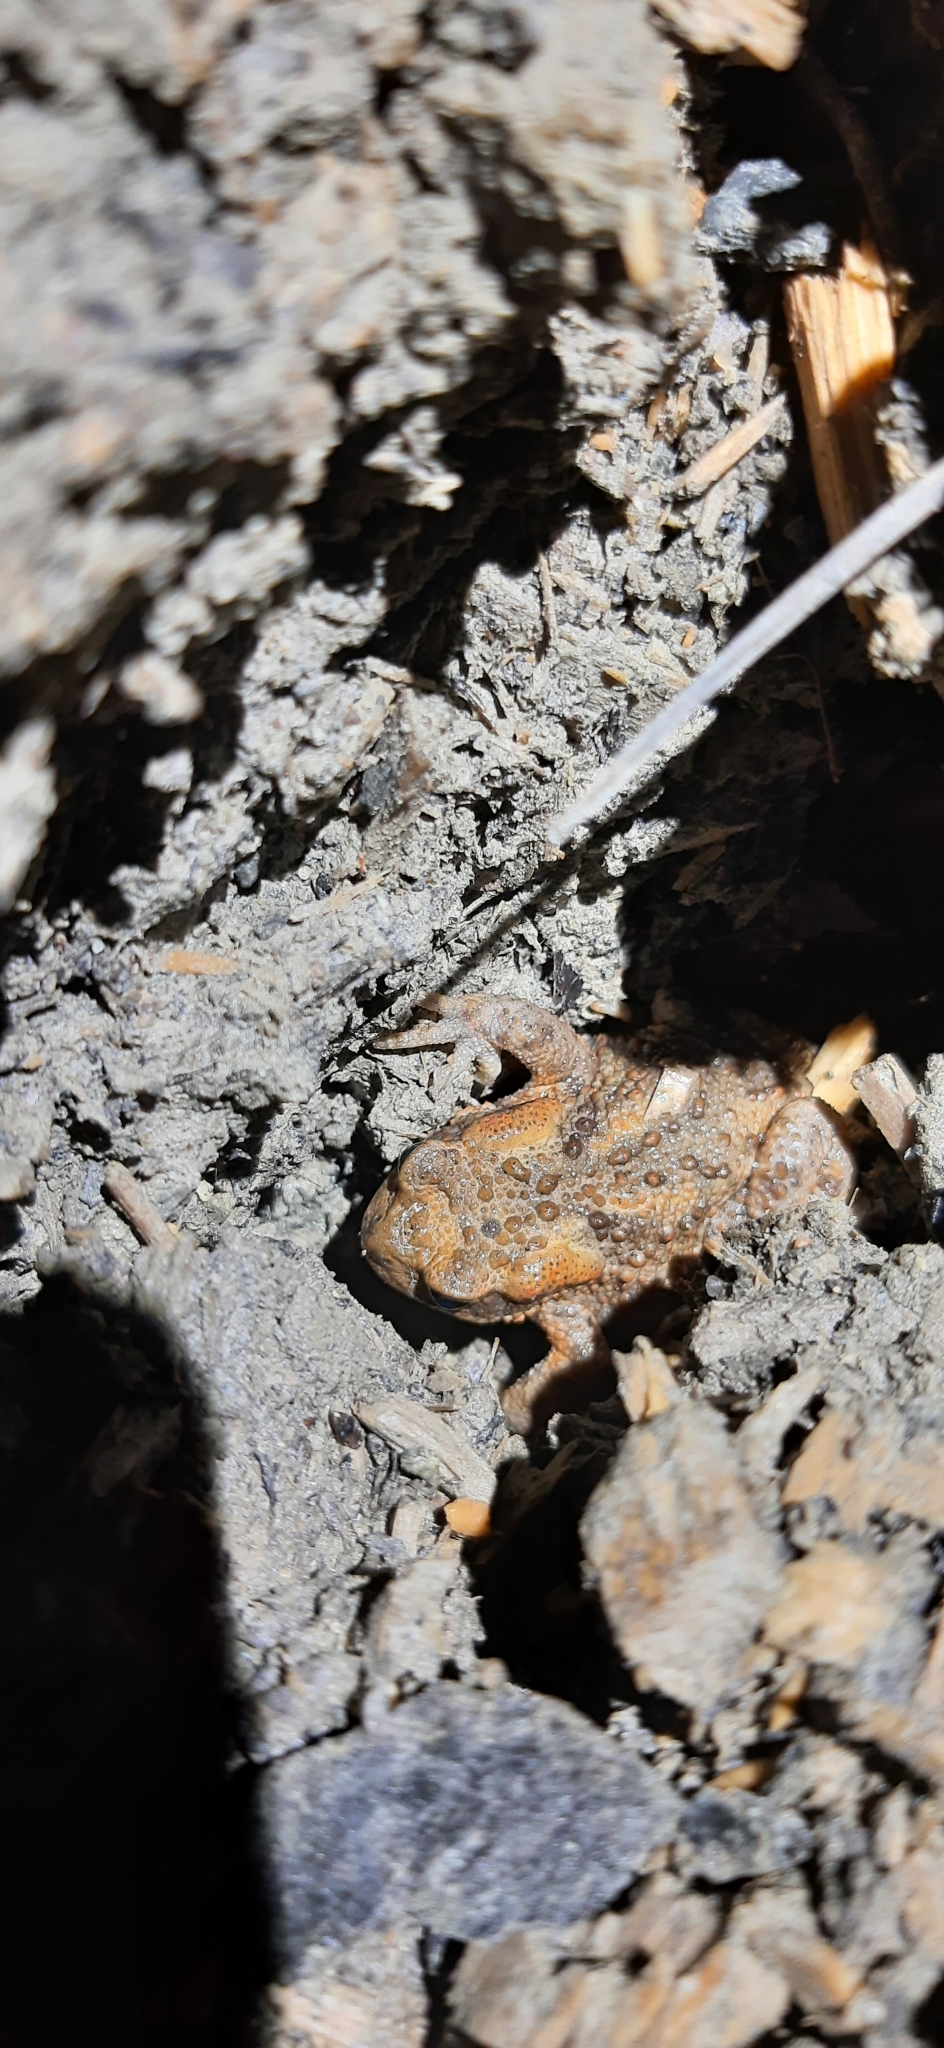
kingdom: Animalia
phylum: Chordata
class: Amphibia
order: Anura
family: Bufonidae
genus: Bufo
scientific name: Bufo bufo
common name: Common toad
